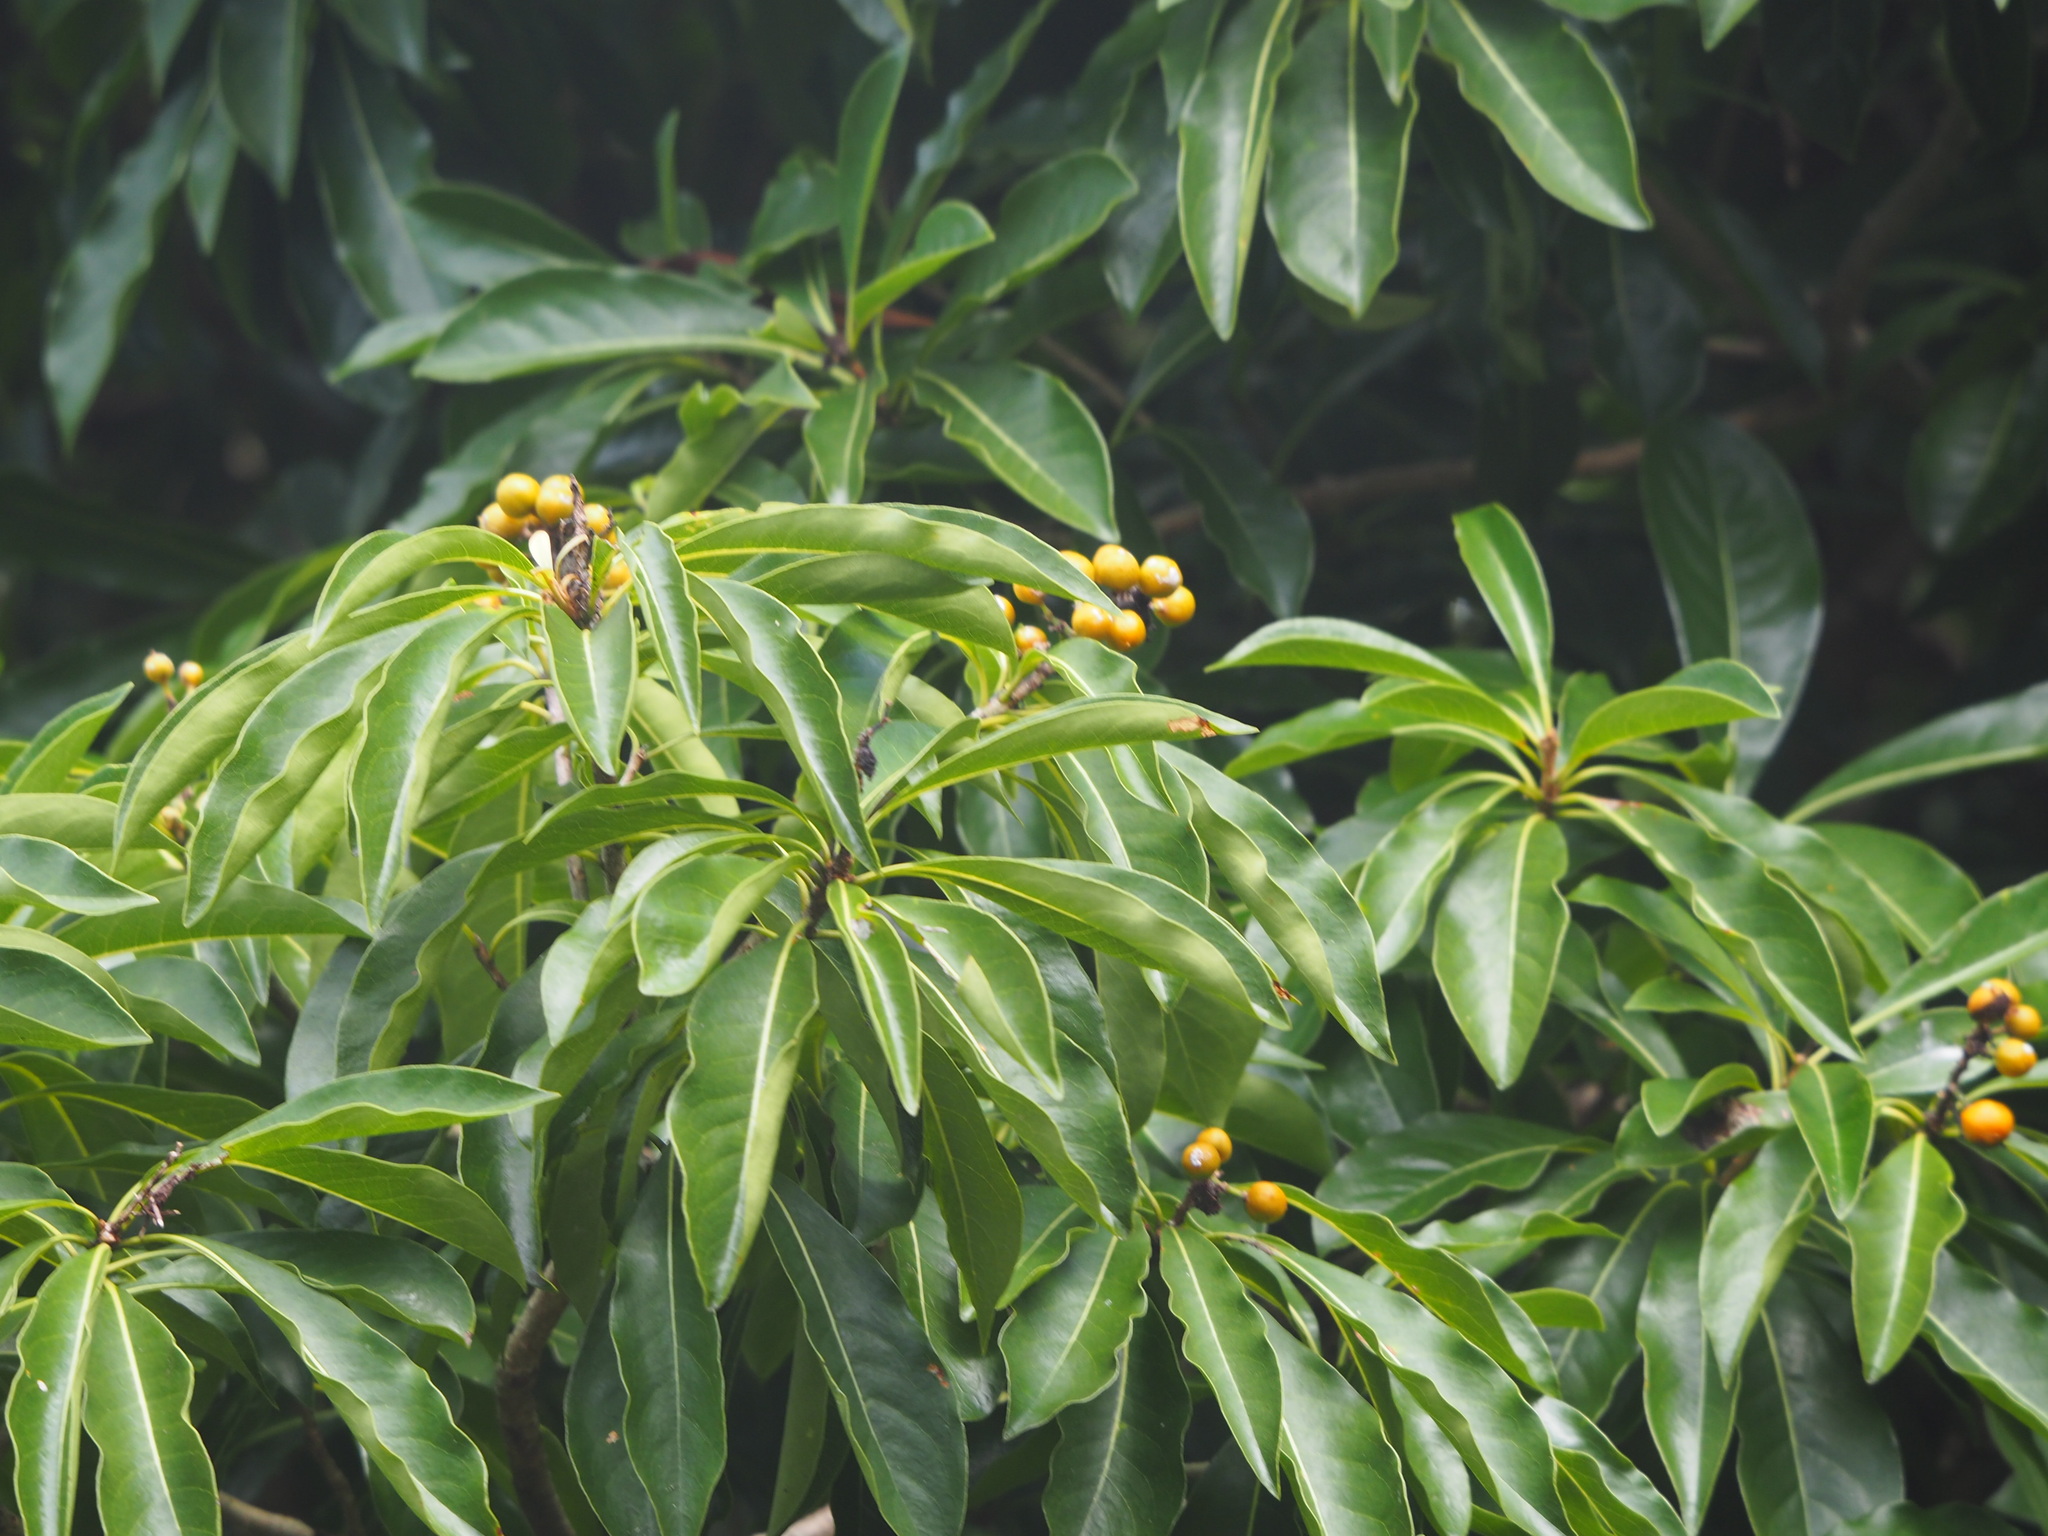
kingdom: Plantae
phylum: Tracheophyta
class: Magnoliopsida
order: Apiales
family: Pittosporaceae
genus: Pittosporum
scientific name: Pittosporum pentandrum
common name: Taiwanese cheesewood
